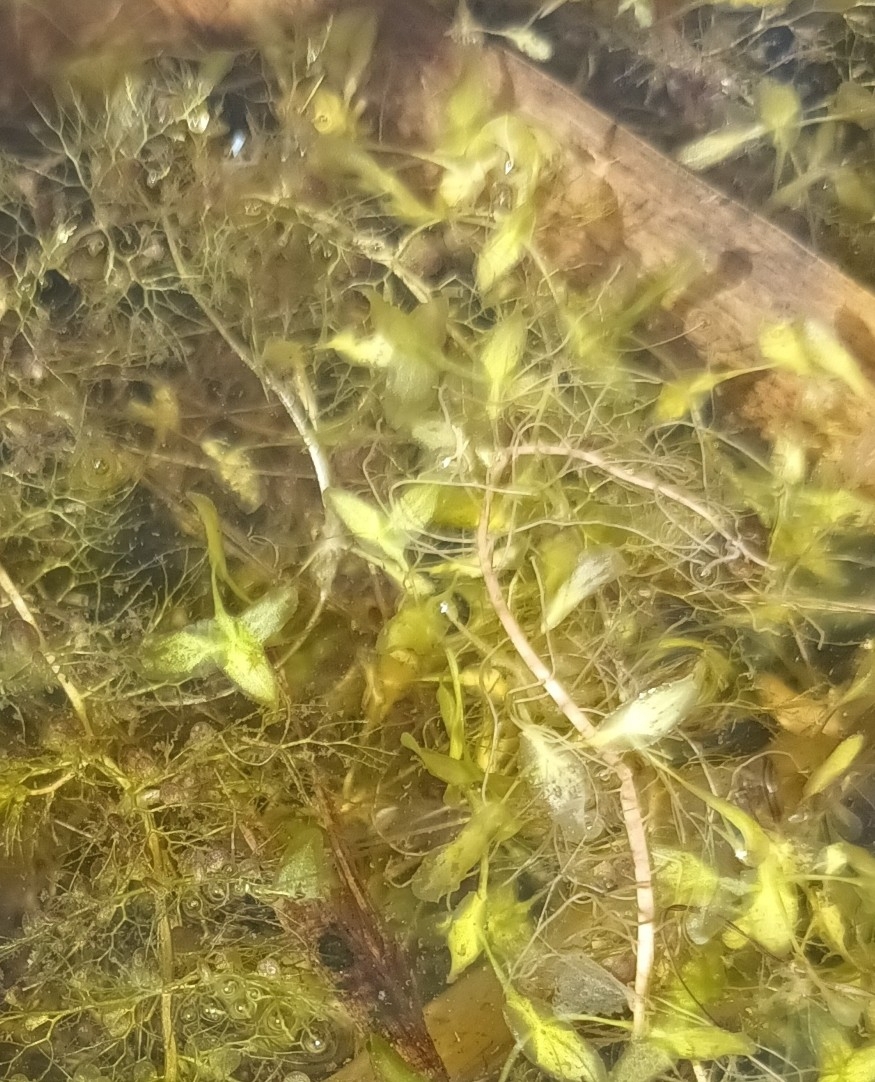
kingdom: Plantae
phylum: Tracheophyta
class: Liliopsida
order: Alismatales
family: Araceae
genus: Lemna
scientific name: Lemna trisulca
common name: Ivy-leaved duckweed
